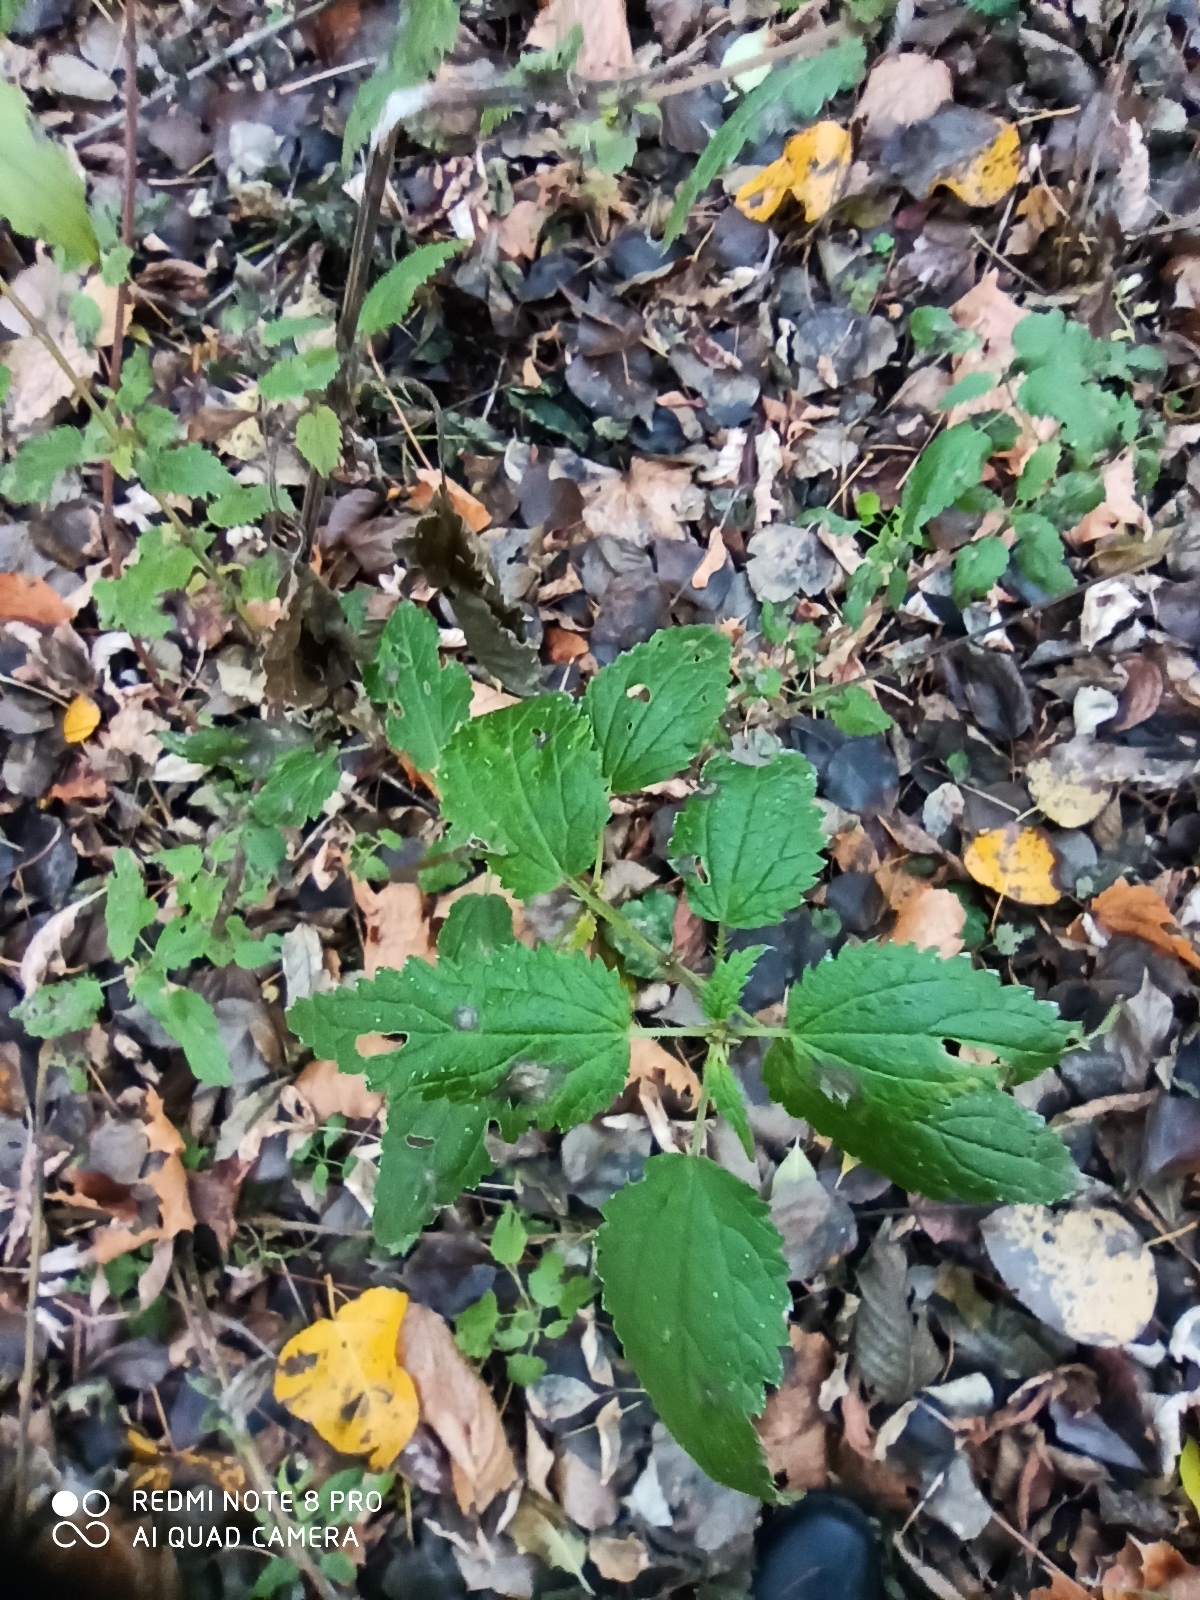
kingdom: Plantae
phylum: Tracheophyta
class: Magnoliopsida
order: Rosales
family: Urticaceae
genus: Urtica
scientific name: Urtica dioica
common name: Common nettle
